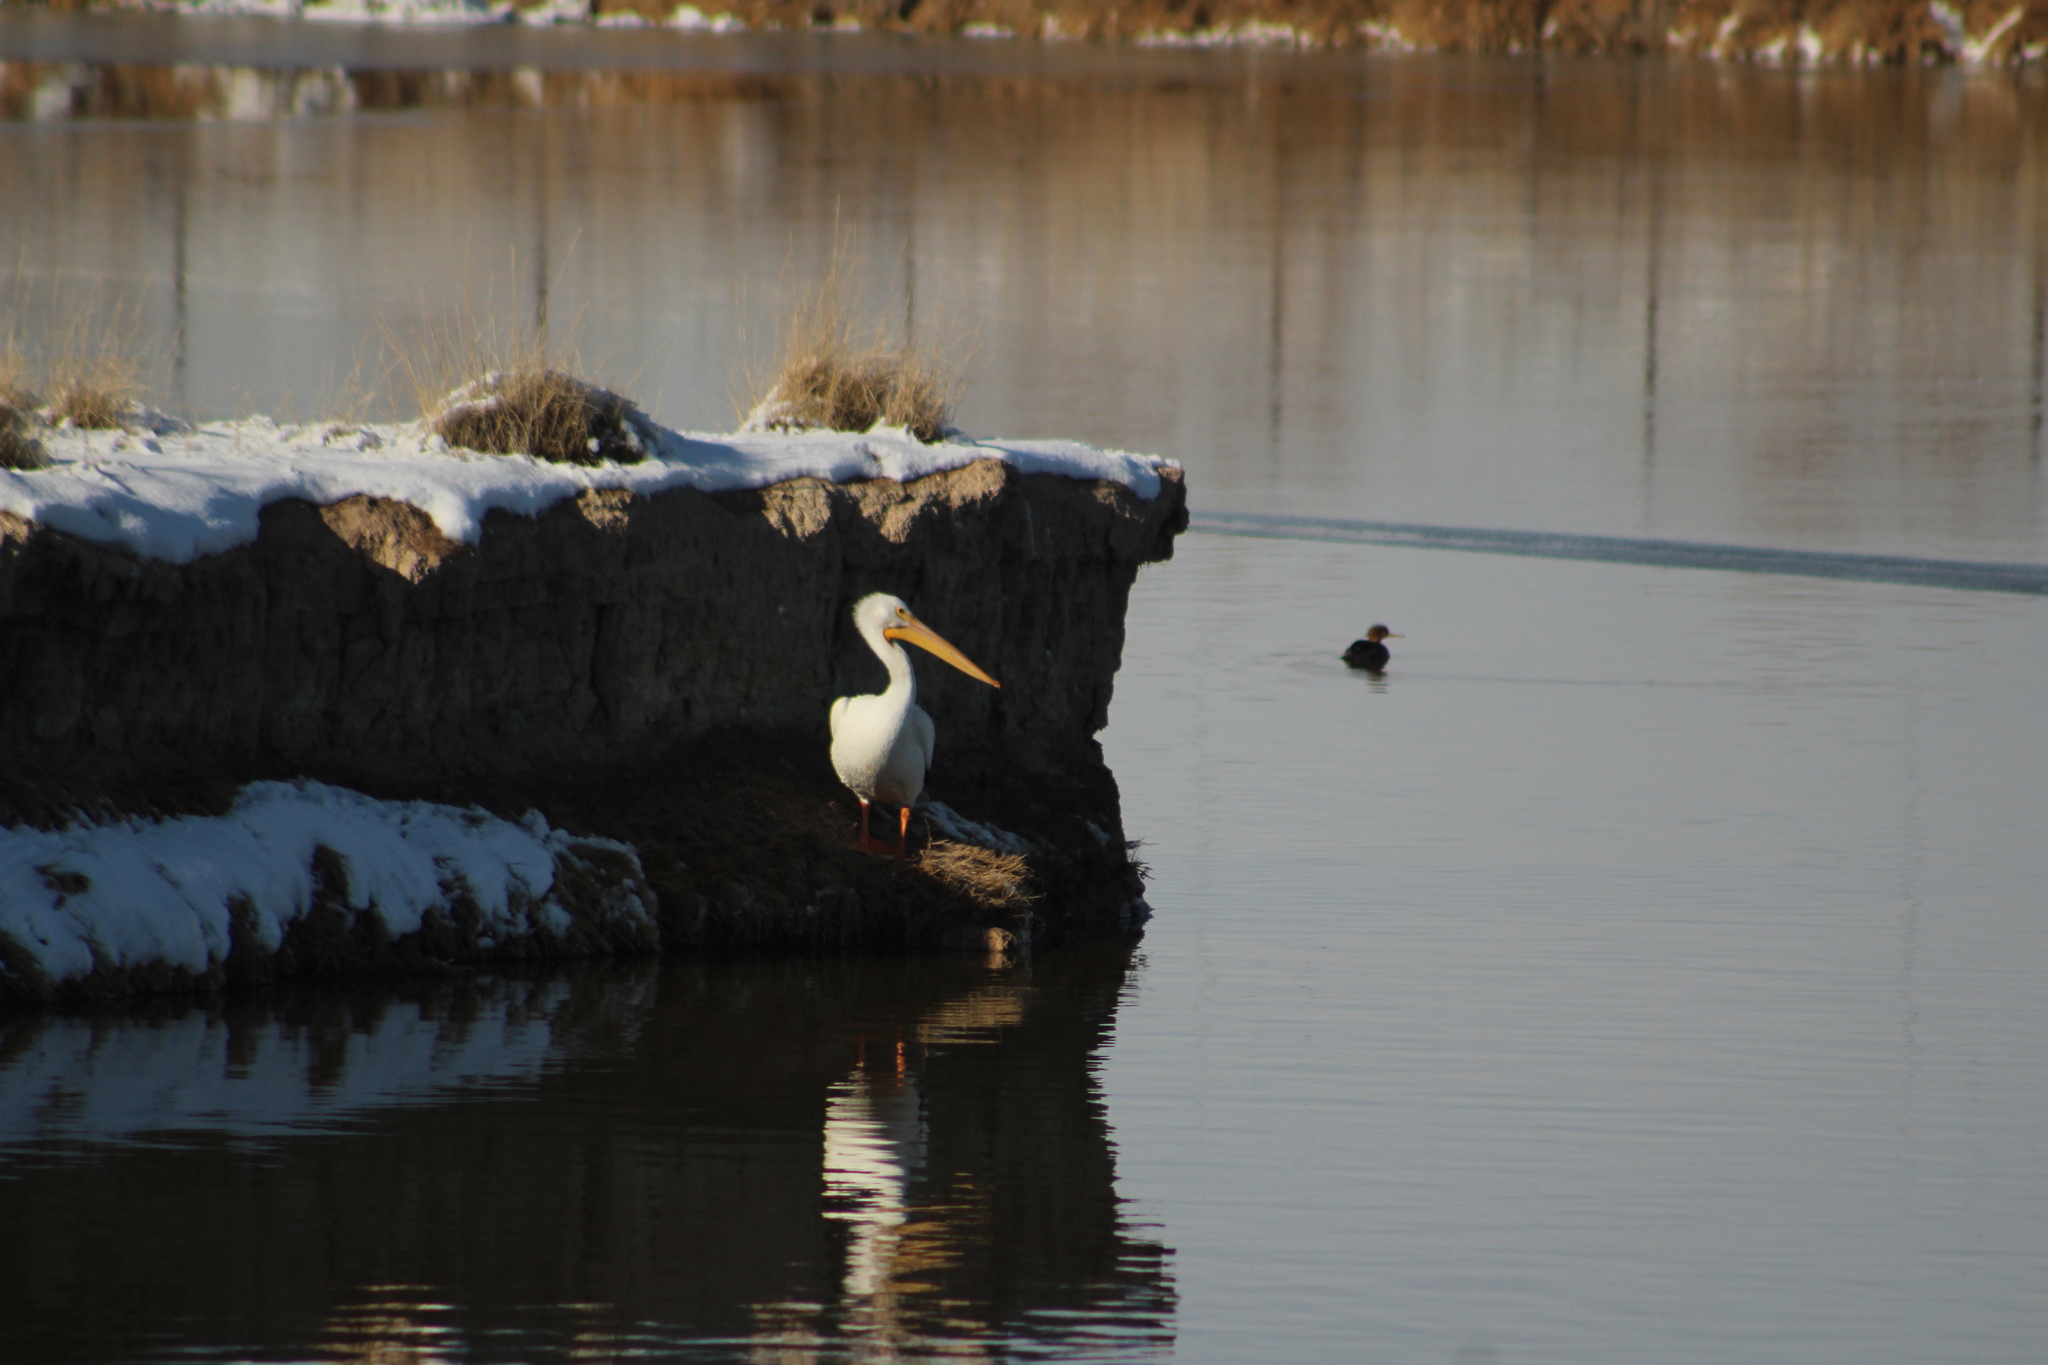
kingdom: Animalia
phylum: Chordata
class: Aves
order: Pelecaniformes
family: Pelecanidae
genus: Pelecanus
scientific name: Pelecanus erythrorhynchos
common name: American white pelican
